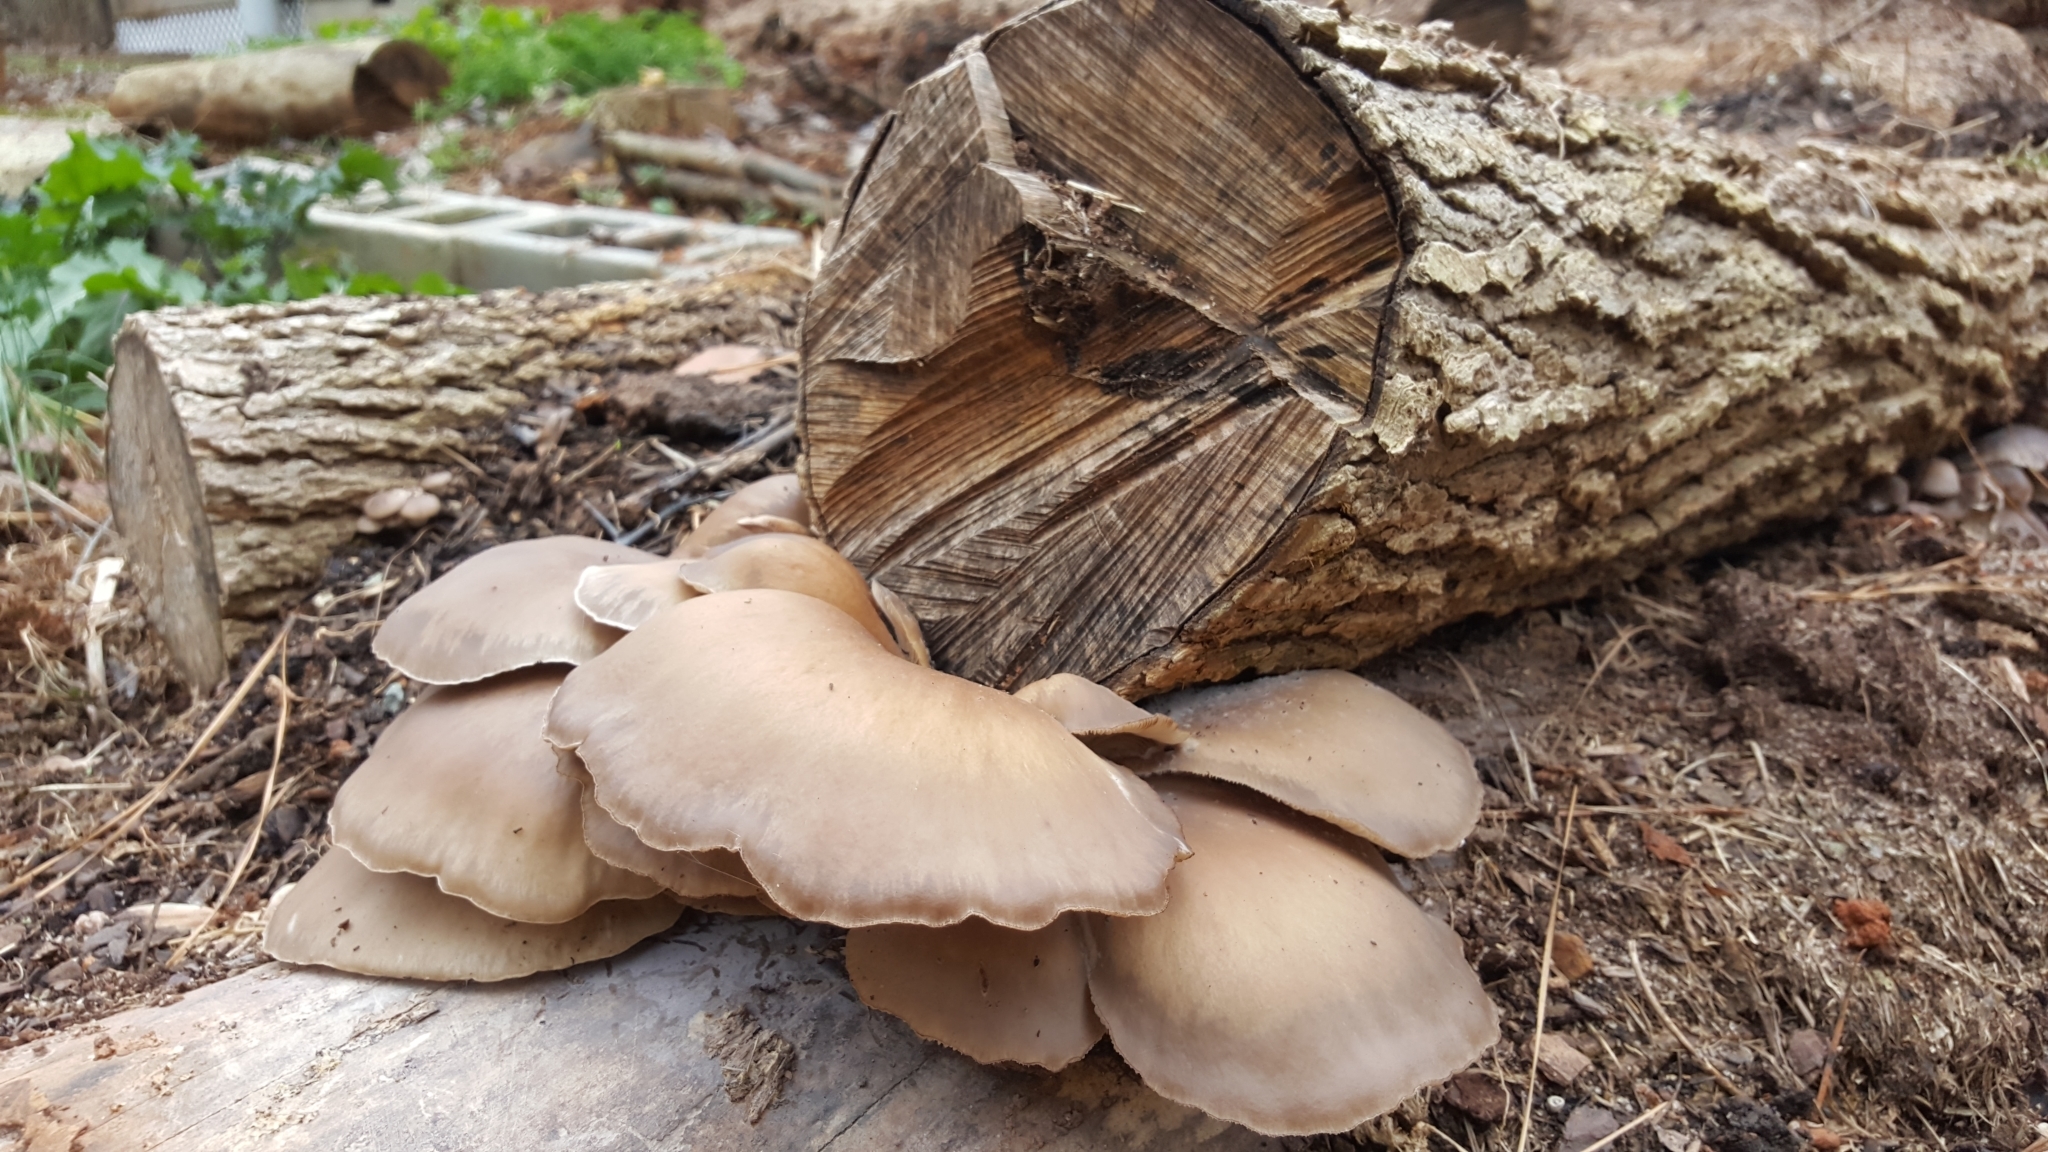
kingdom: Fungi
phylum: Basidiomycota
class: Agaricomycetes
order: Agaricales
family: Pleurotaceae
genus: Pleurotus
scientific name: Pleurotus ostreatus
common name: Oyster mushroom
